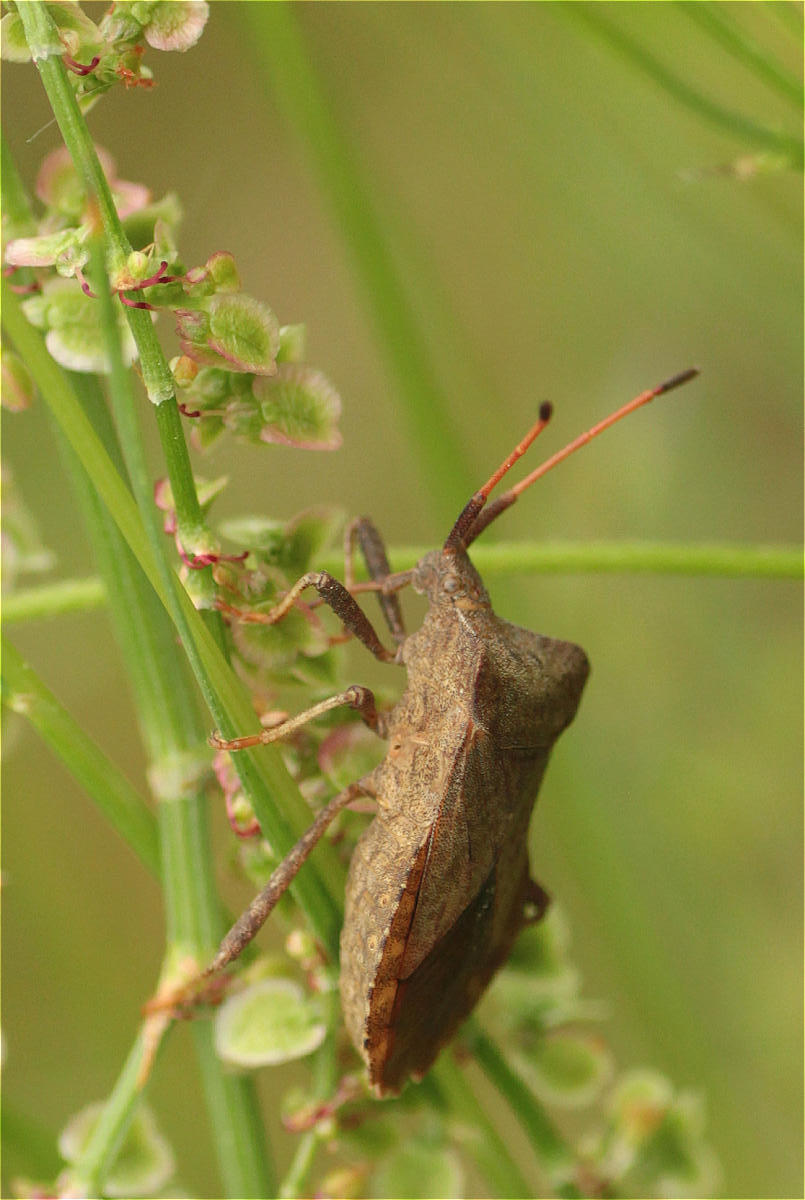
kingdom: Animalia
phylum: Arthropoda
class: Insecta
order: Hemiptera
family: Coreidae
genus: Coreus
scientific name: Coreus marginatus
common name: Dock bug
